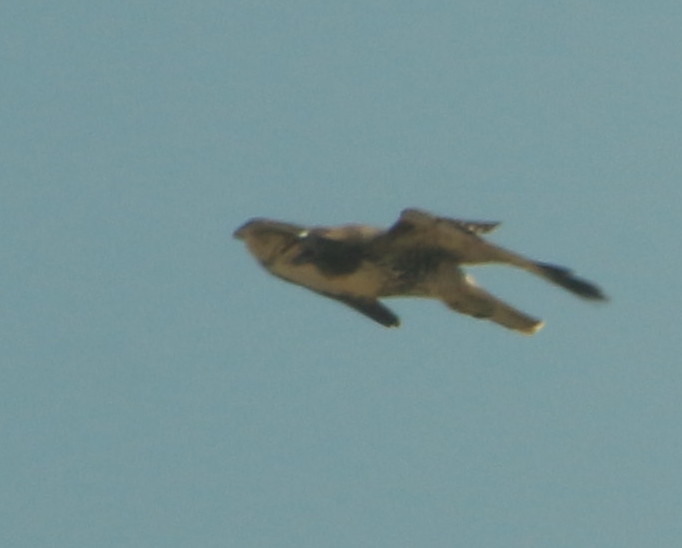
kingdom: Animalia
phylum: Chordata
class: Aves
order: Accipitriformes
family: Accipitridae
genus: Buteo
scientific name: Buteo jamaicensis
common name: Red-tailed hawk
